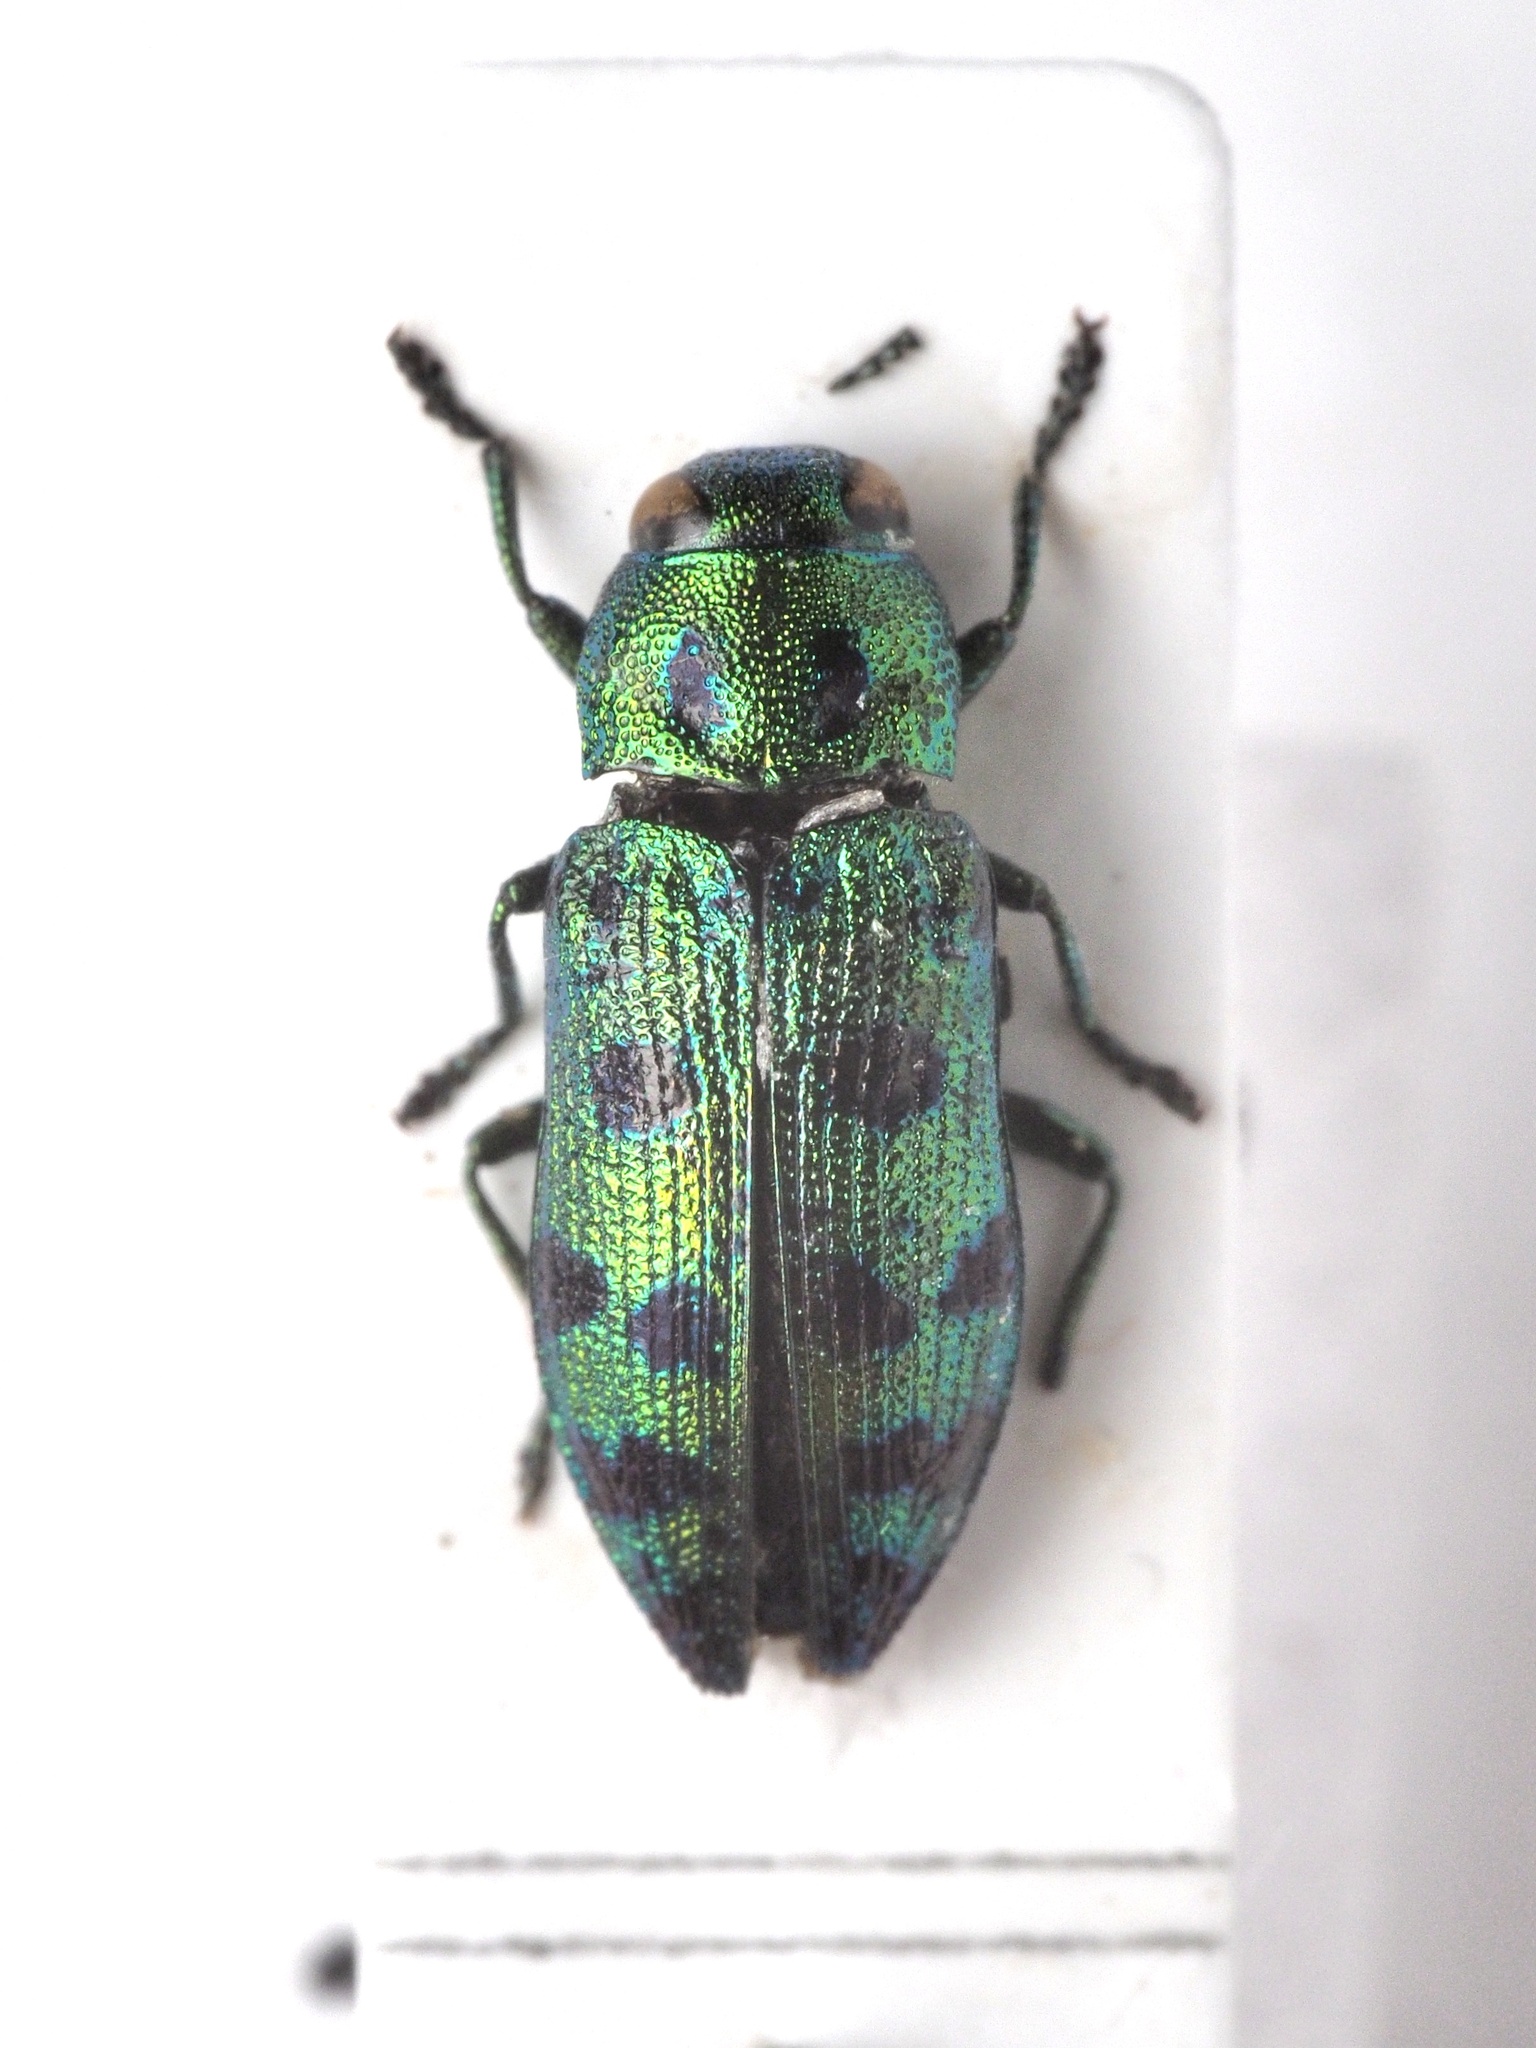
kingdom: Animalia
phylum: Arthropoda
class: Insecta
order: Coleoptera
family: Buprestidae
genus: Lamprodila
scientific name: Lamprodila festiva
